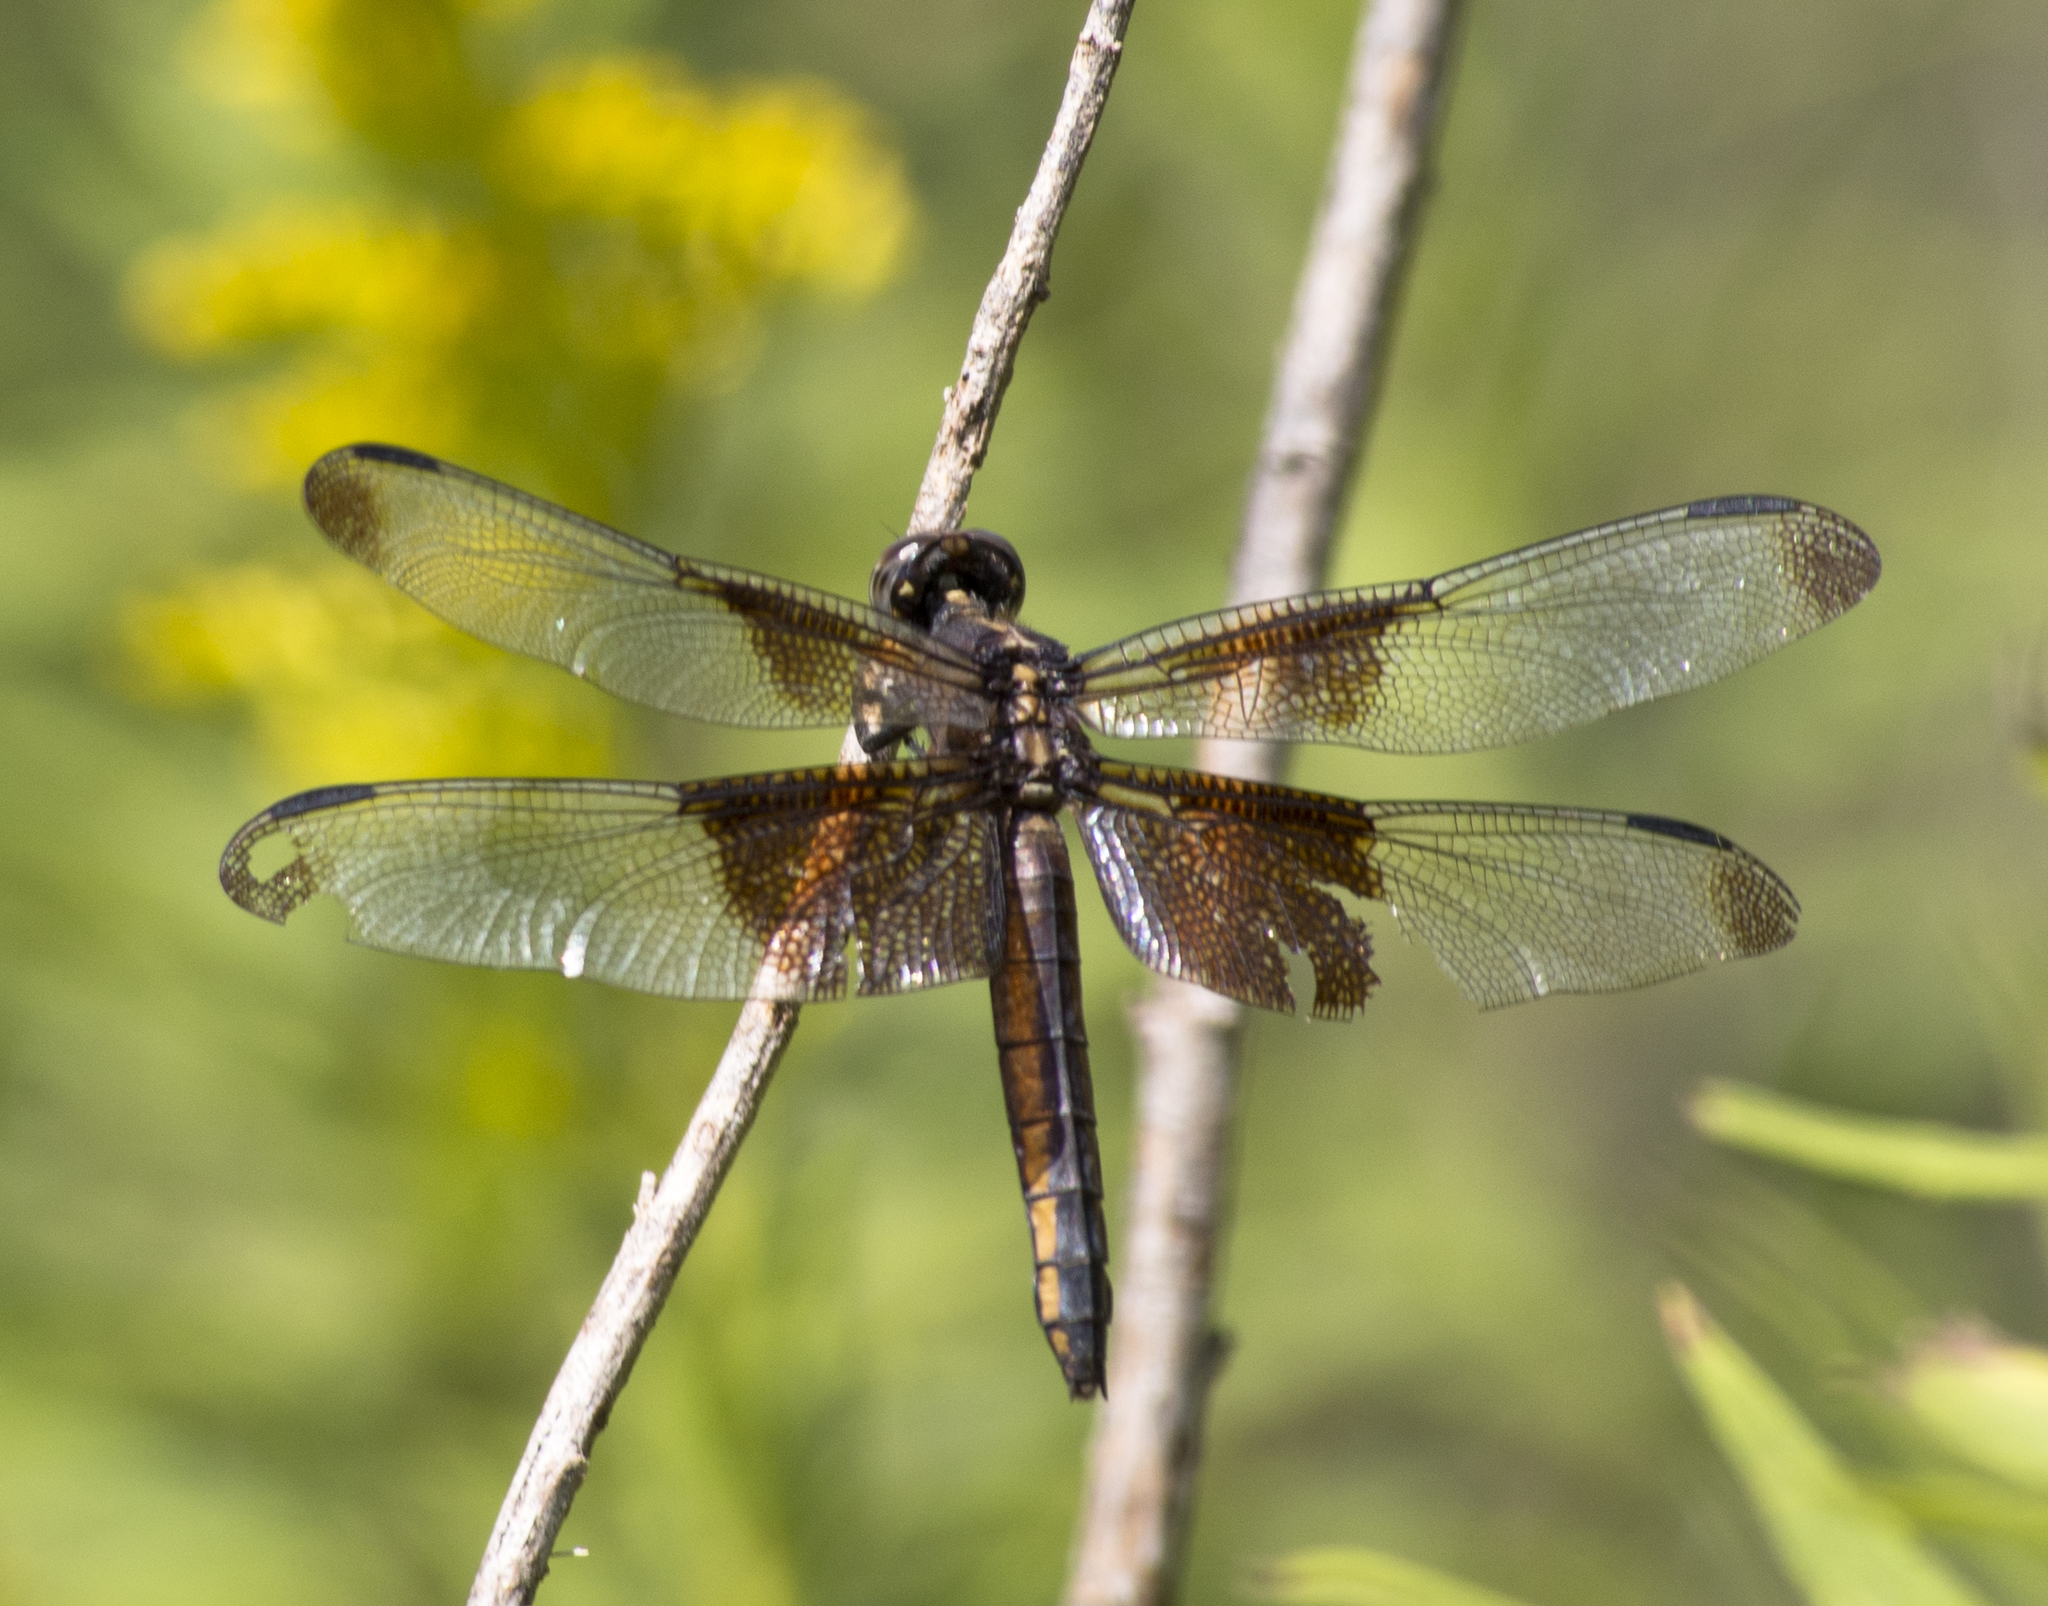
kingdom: Animalia
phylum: Arthropoda
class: Insecta
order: Odonata
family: Libellulidae
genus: Libellula
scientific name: Libellula luctuosa
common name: Widow skimmer
